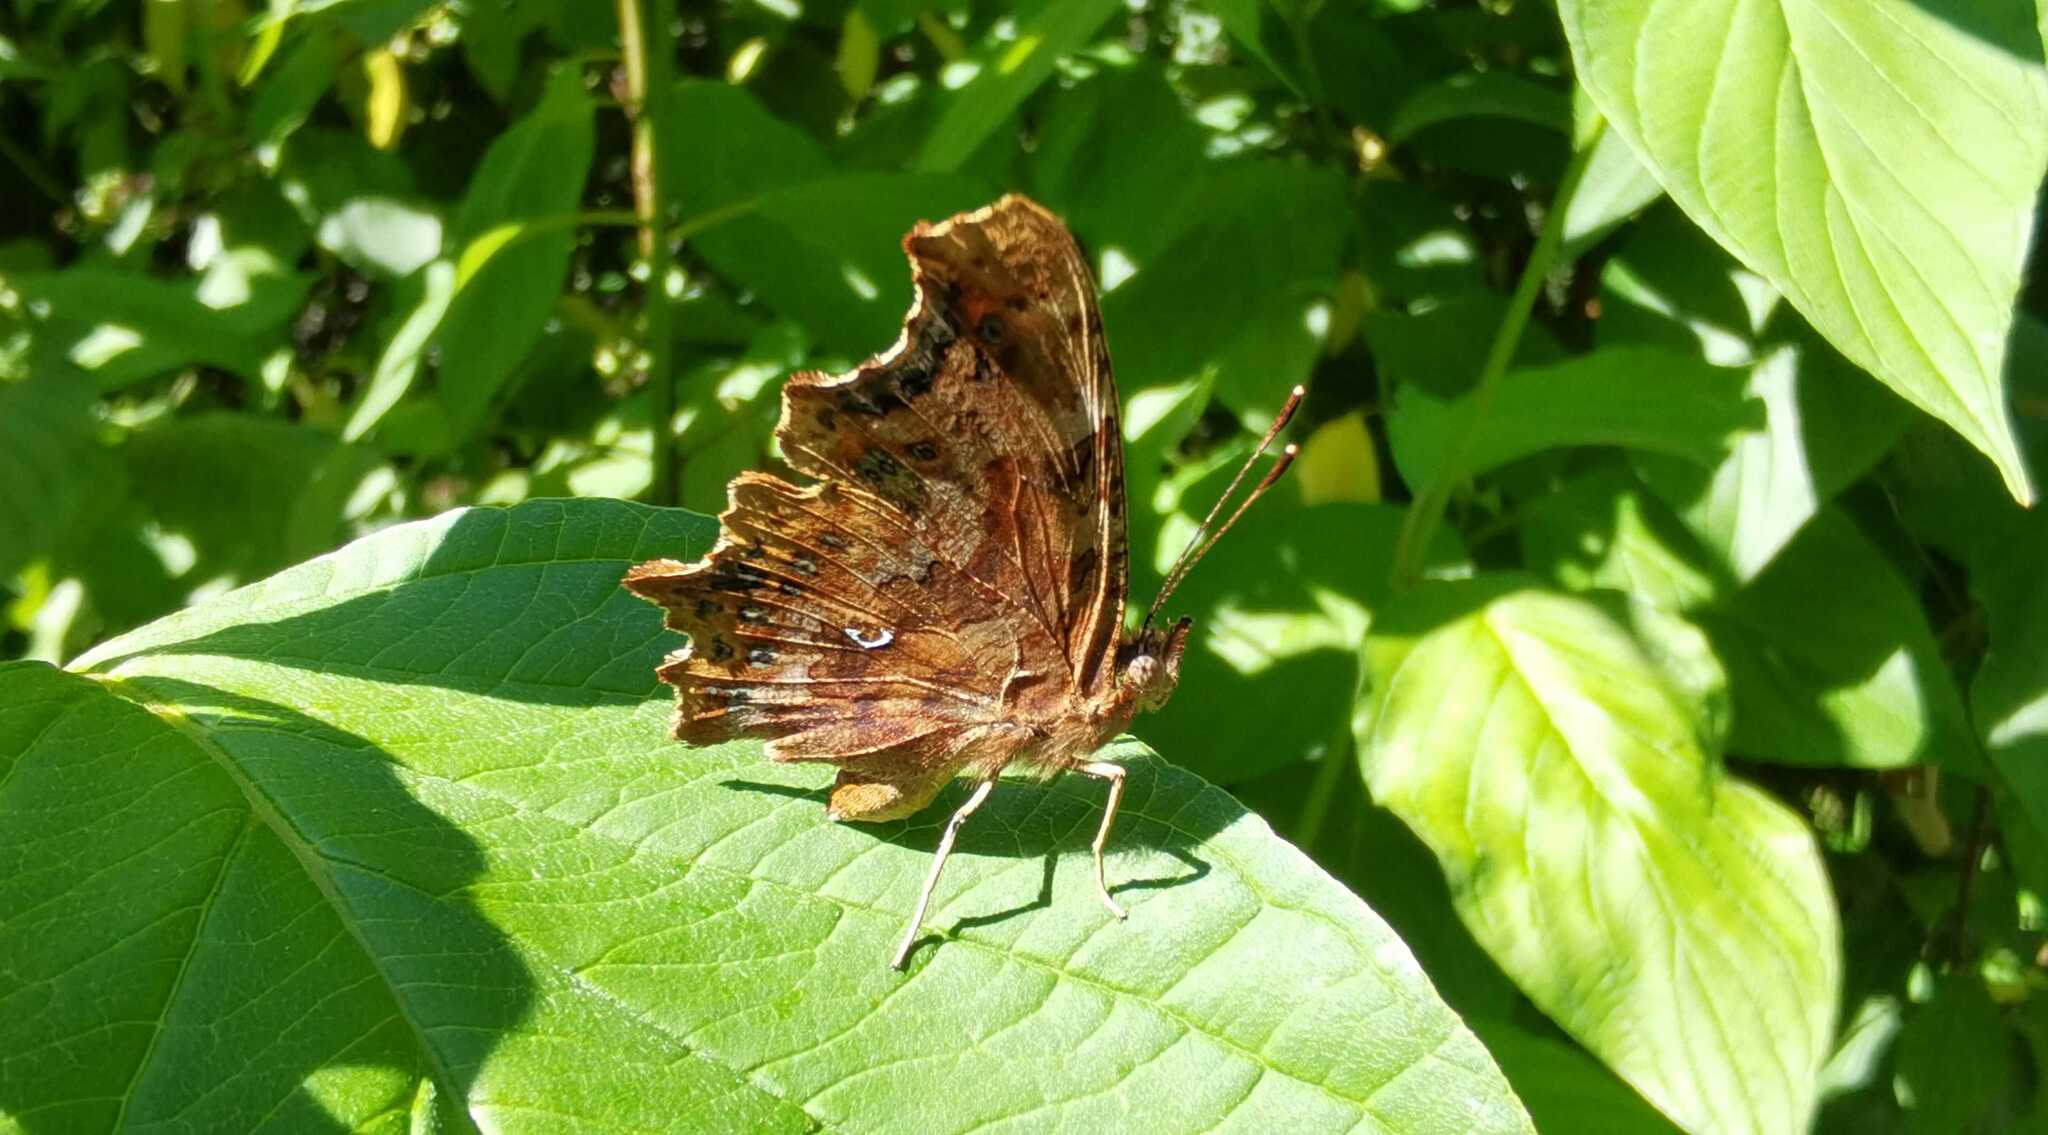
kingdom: Animalia
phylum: Arthropoda
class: Insecta
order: Lepidoptera
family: Nymphalidae
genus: Polygonia
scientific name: Polygonia c-album
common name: Comma
